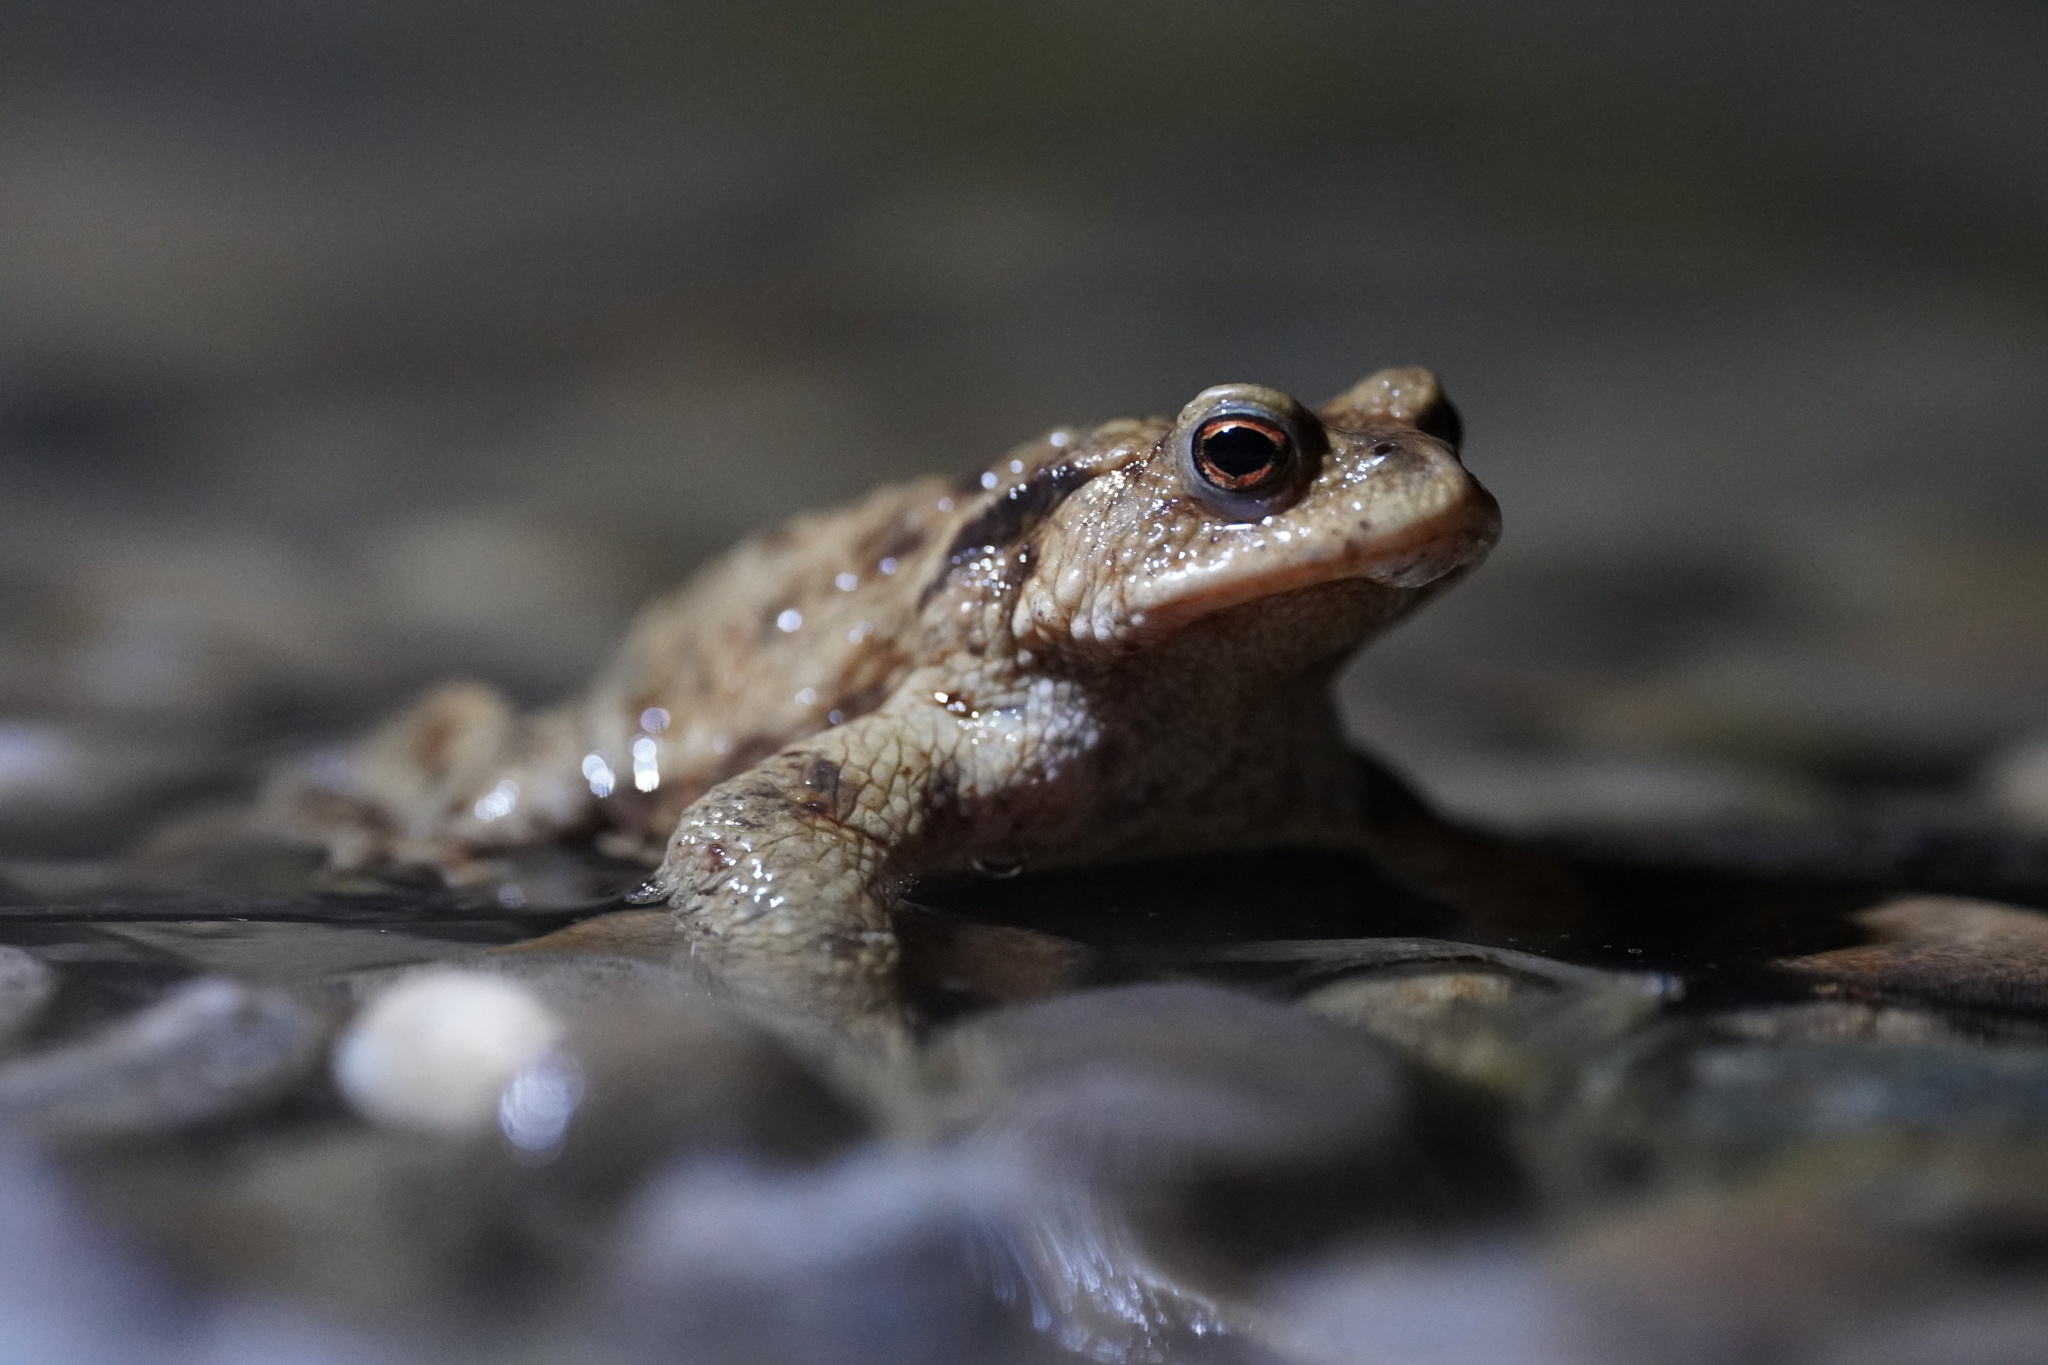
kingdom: Animalia
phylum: Chordata
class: Amphibia
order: Anura
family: Bufonidae
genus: Bufo
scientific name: Bufo bufo
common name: Common toad
